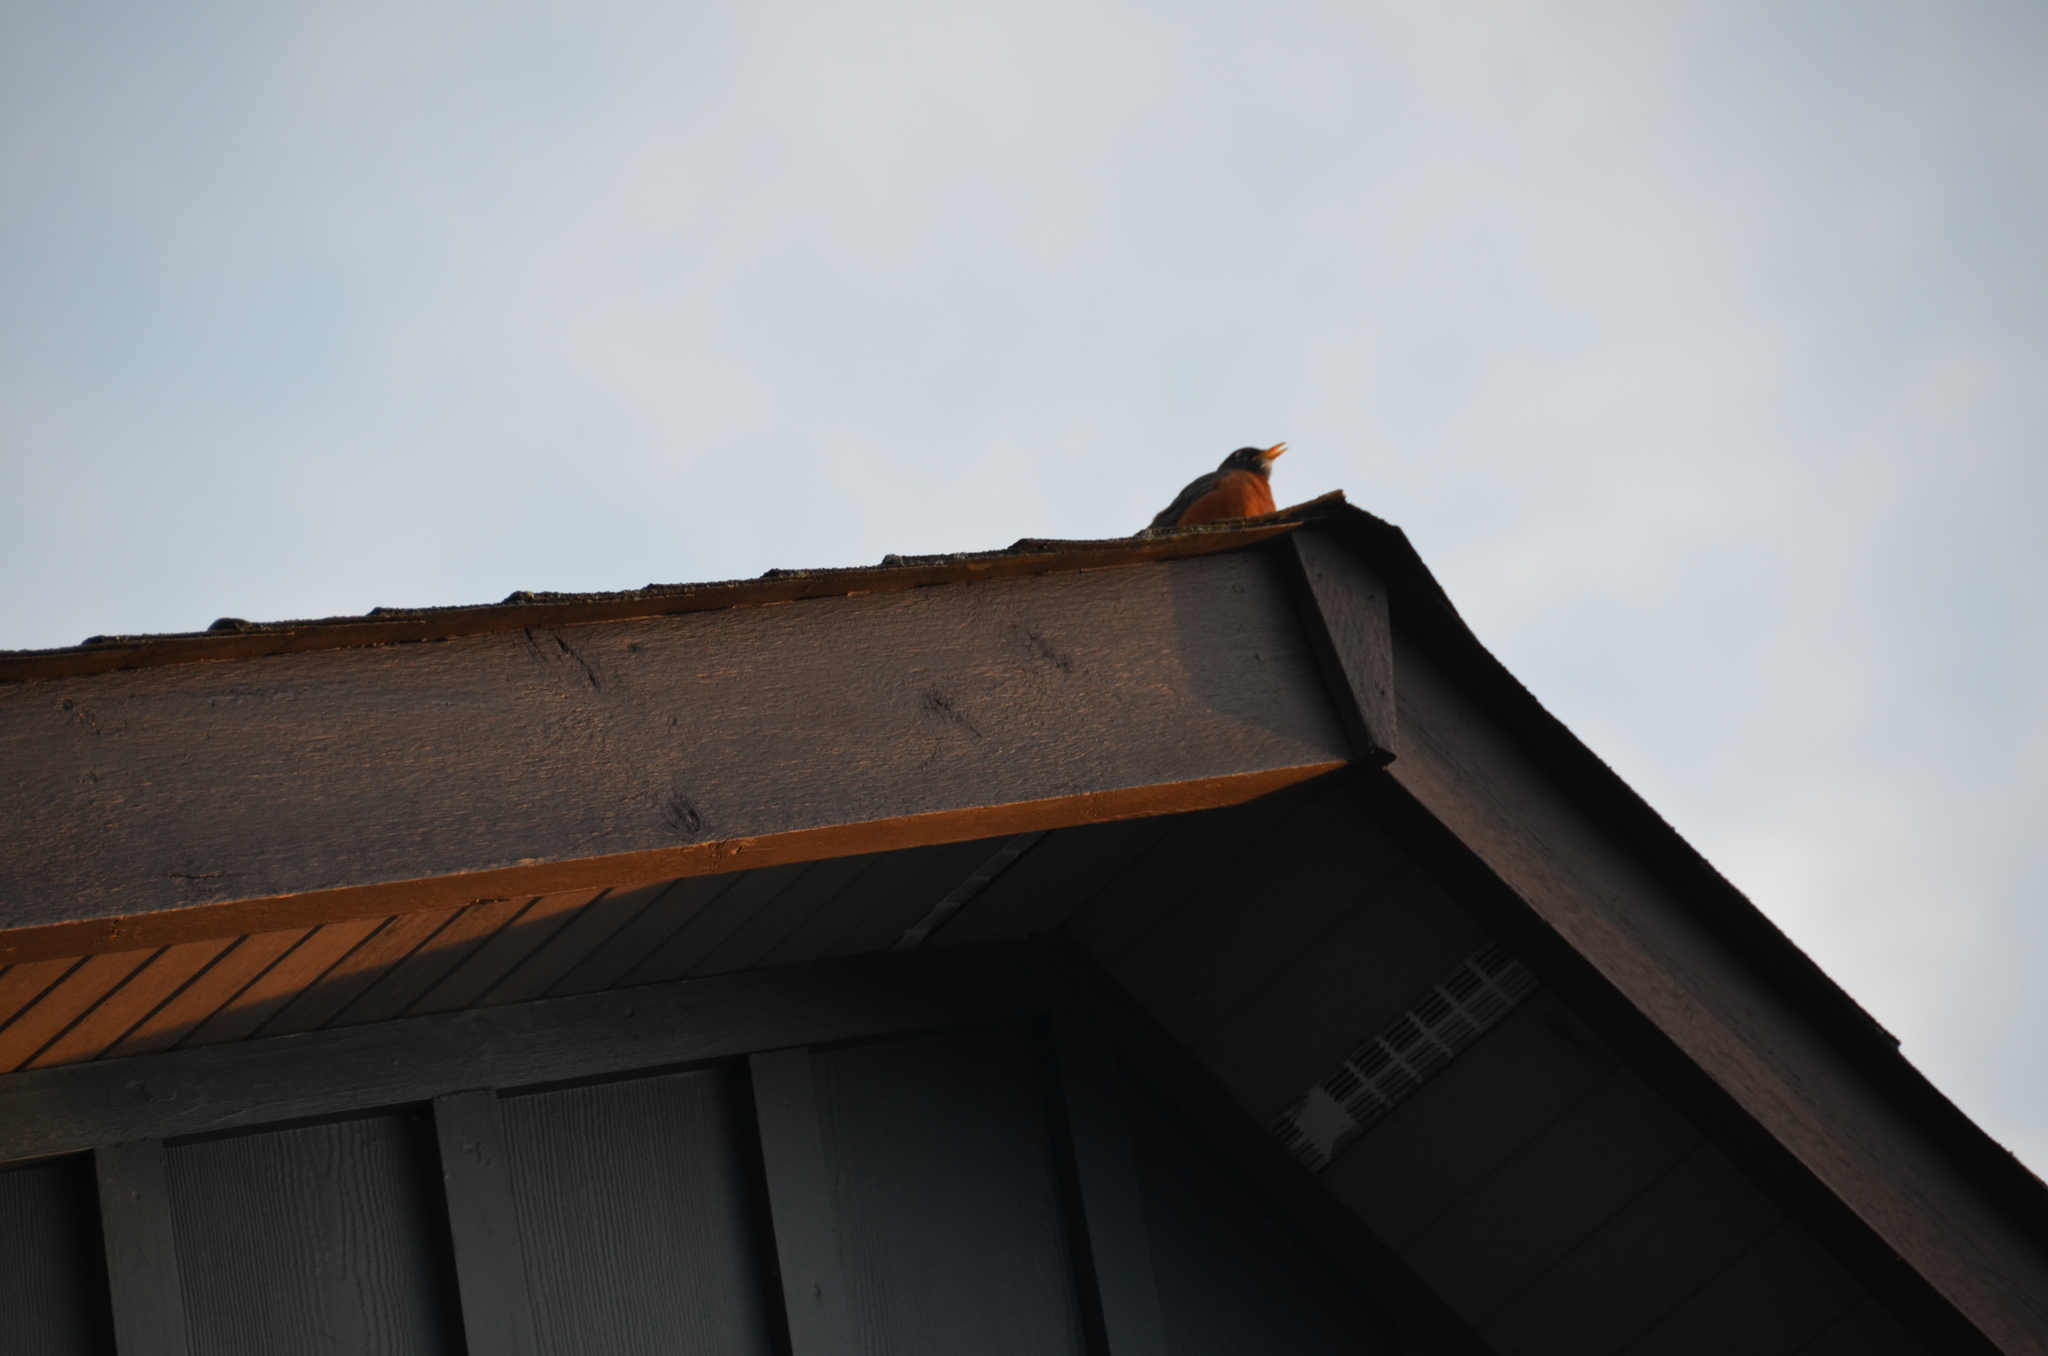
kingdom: Animalia
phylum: Chordata
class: Aves
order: Passeriformes
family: Turdidae
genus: Turdus
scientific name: Turdus migratorius
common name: American robin
